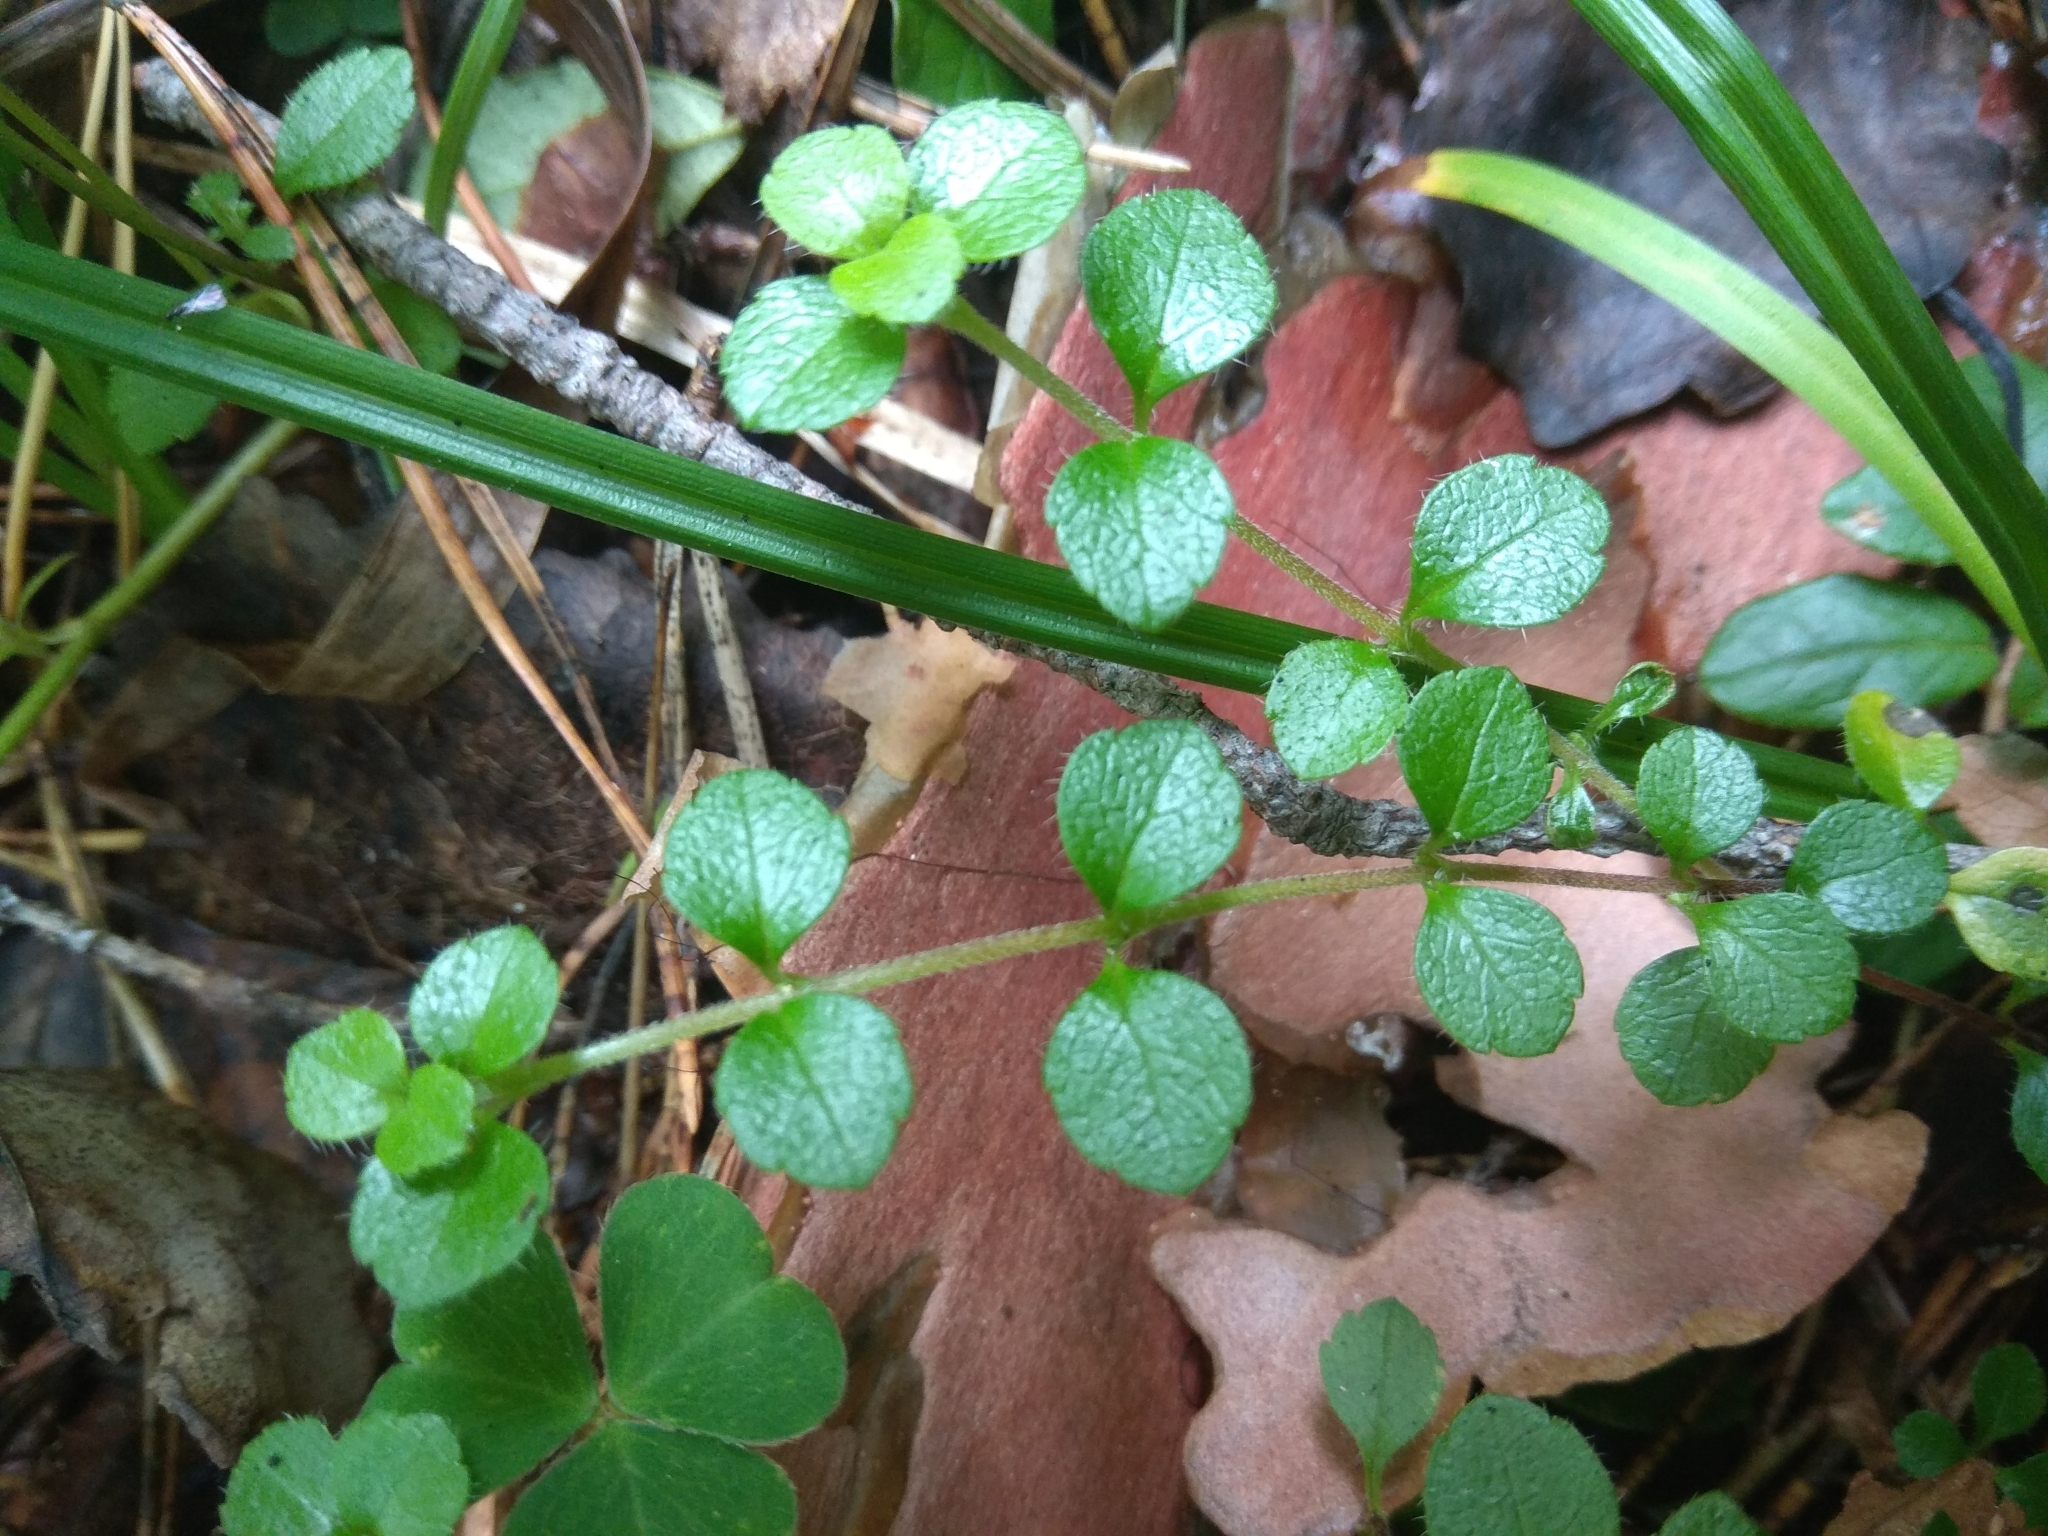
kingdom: Plantae
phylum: Tracheophyta
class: Magnoliopsida
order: Dipsacales
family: Caprifoliaceae
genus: Linnaea
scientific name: Linnaea borealis
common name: Twinflower
